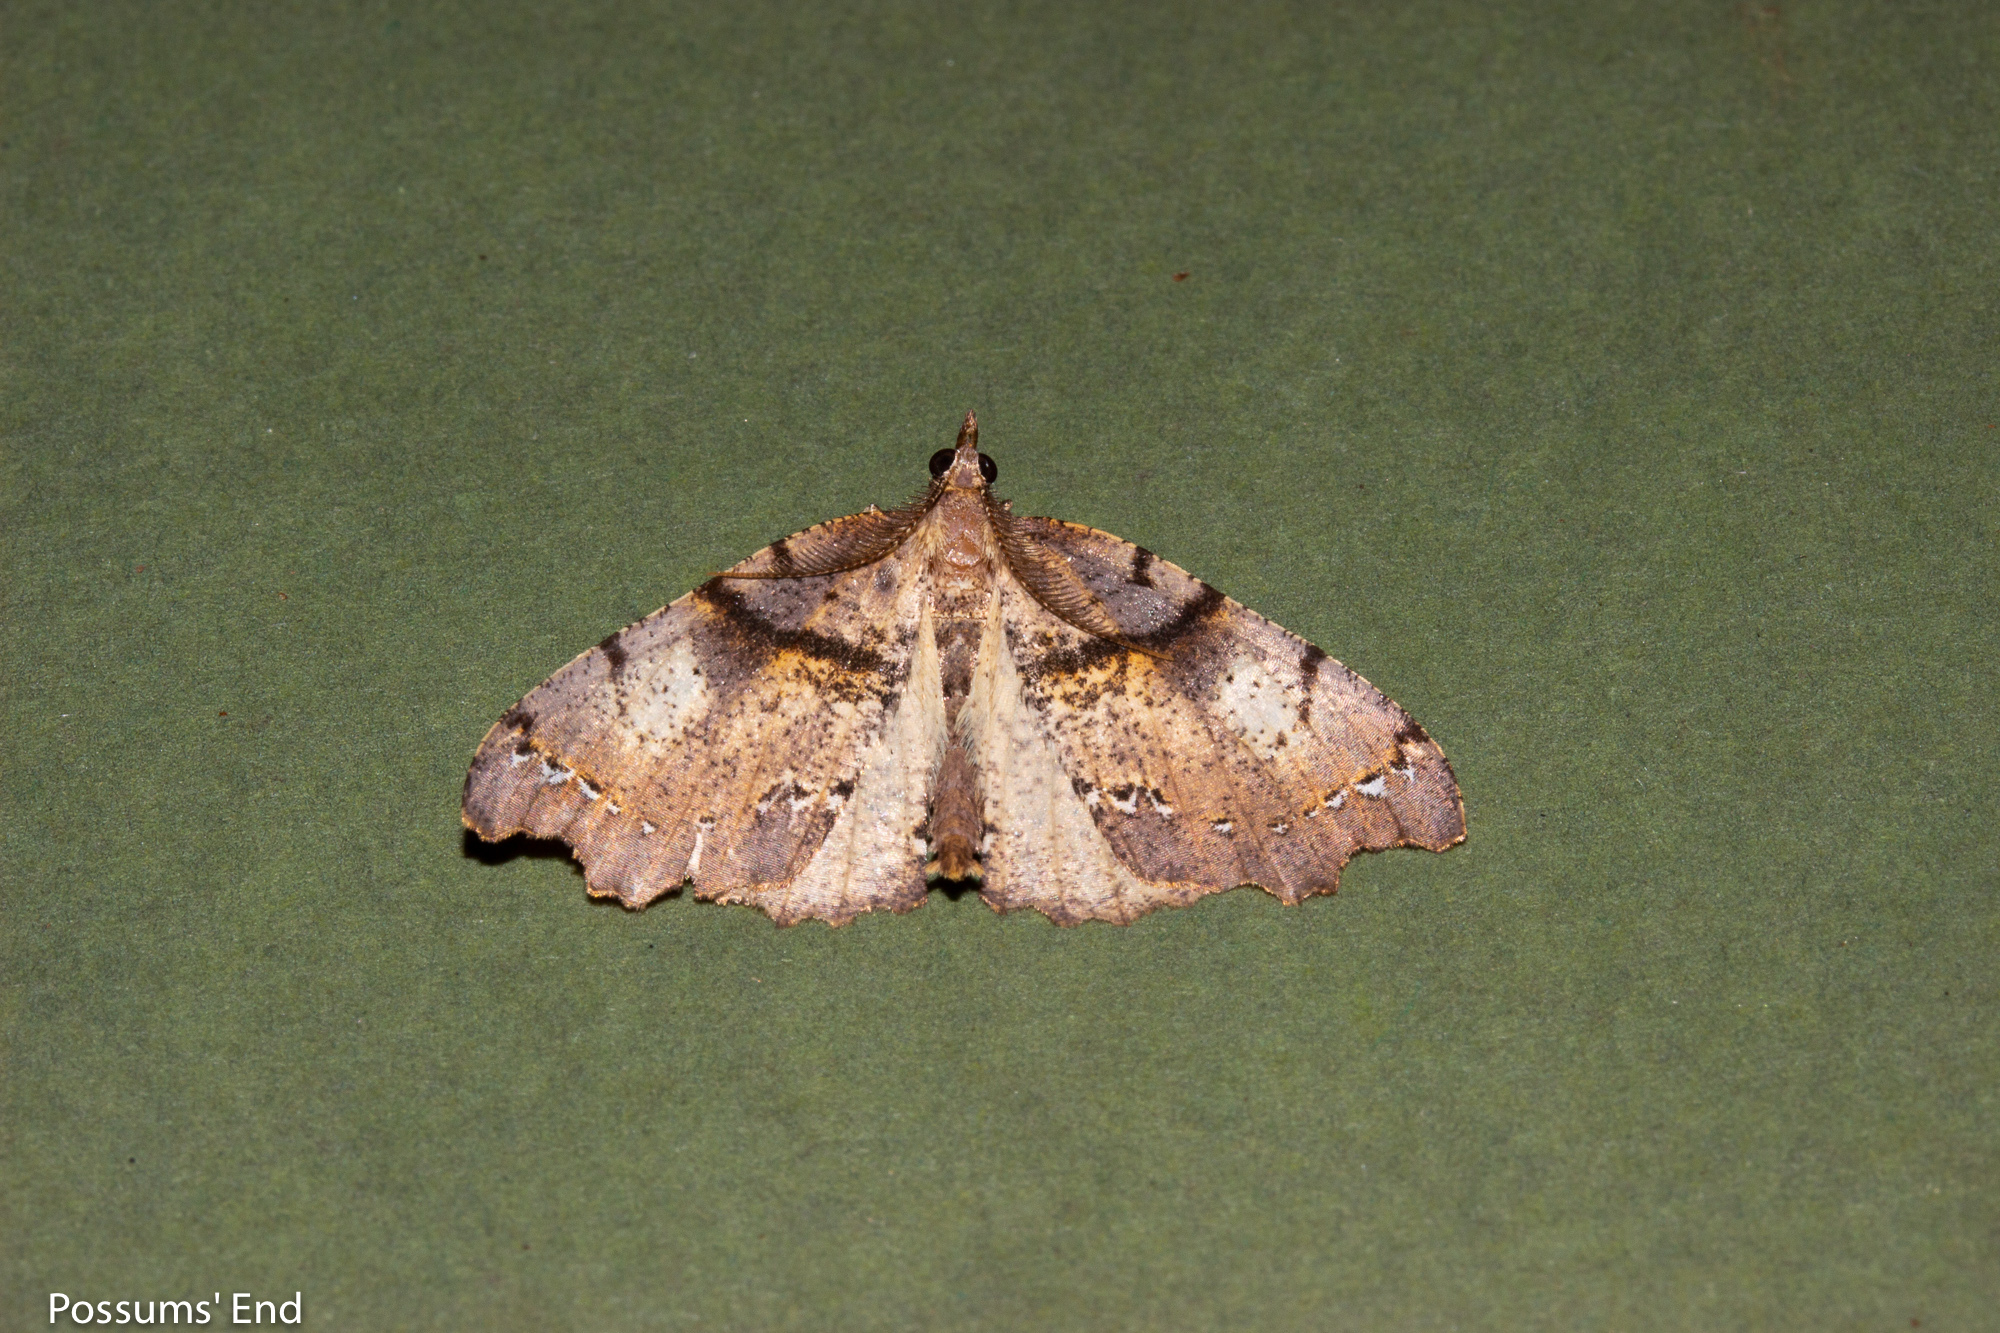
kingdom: Animalia
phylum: Arthropoda
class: Insecta
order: Lepidoptera
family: Geometridae
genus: Chalastra
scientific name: Chalastra pellurgata
